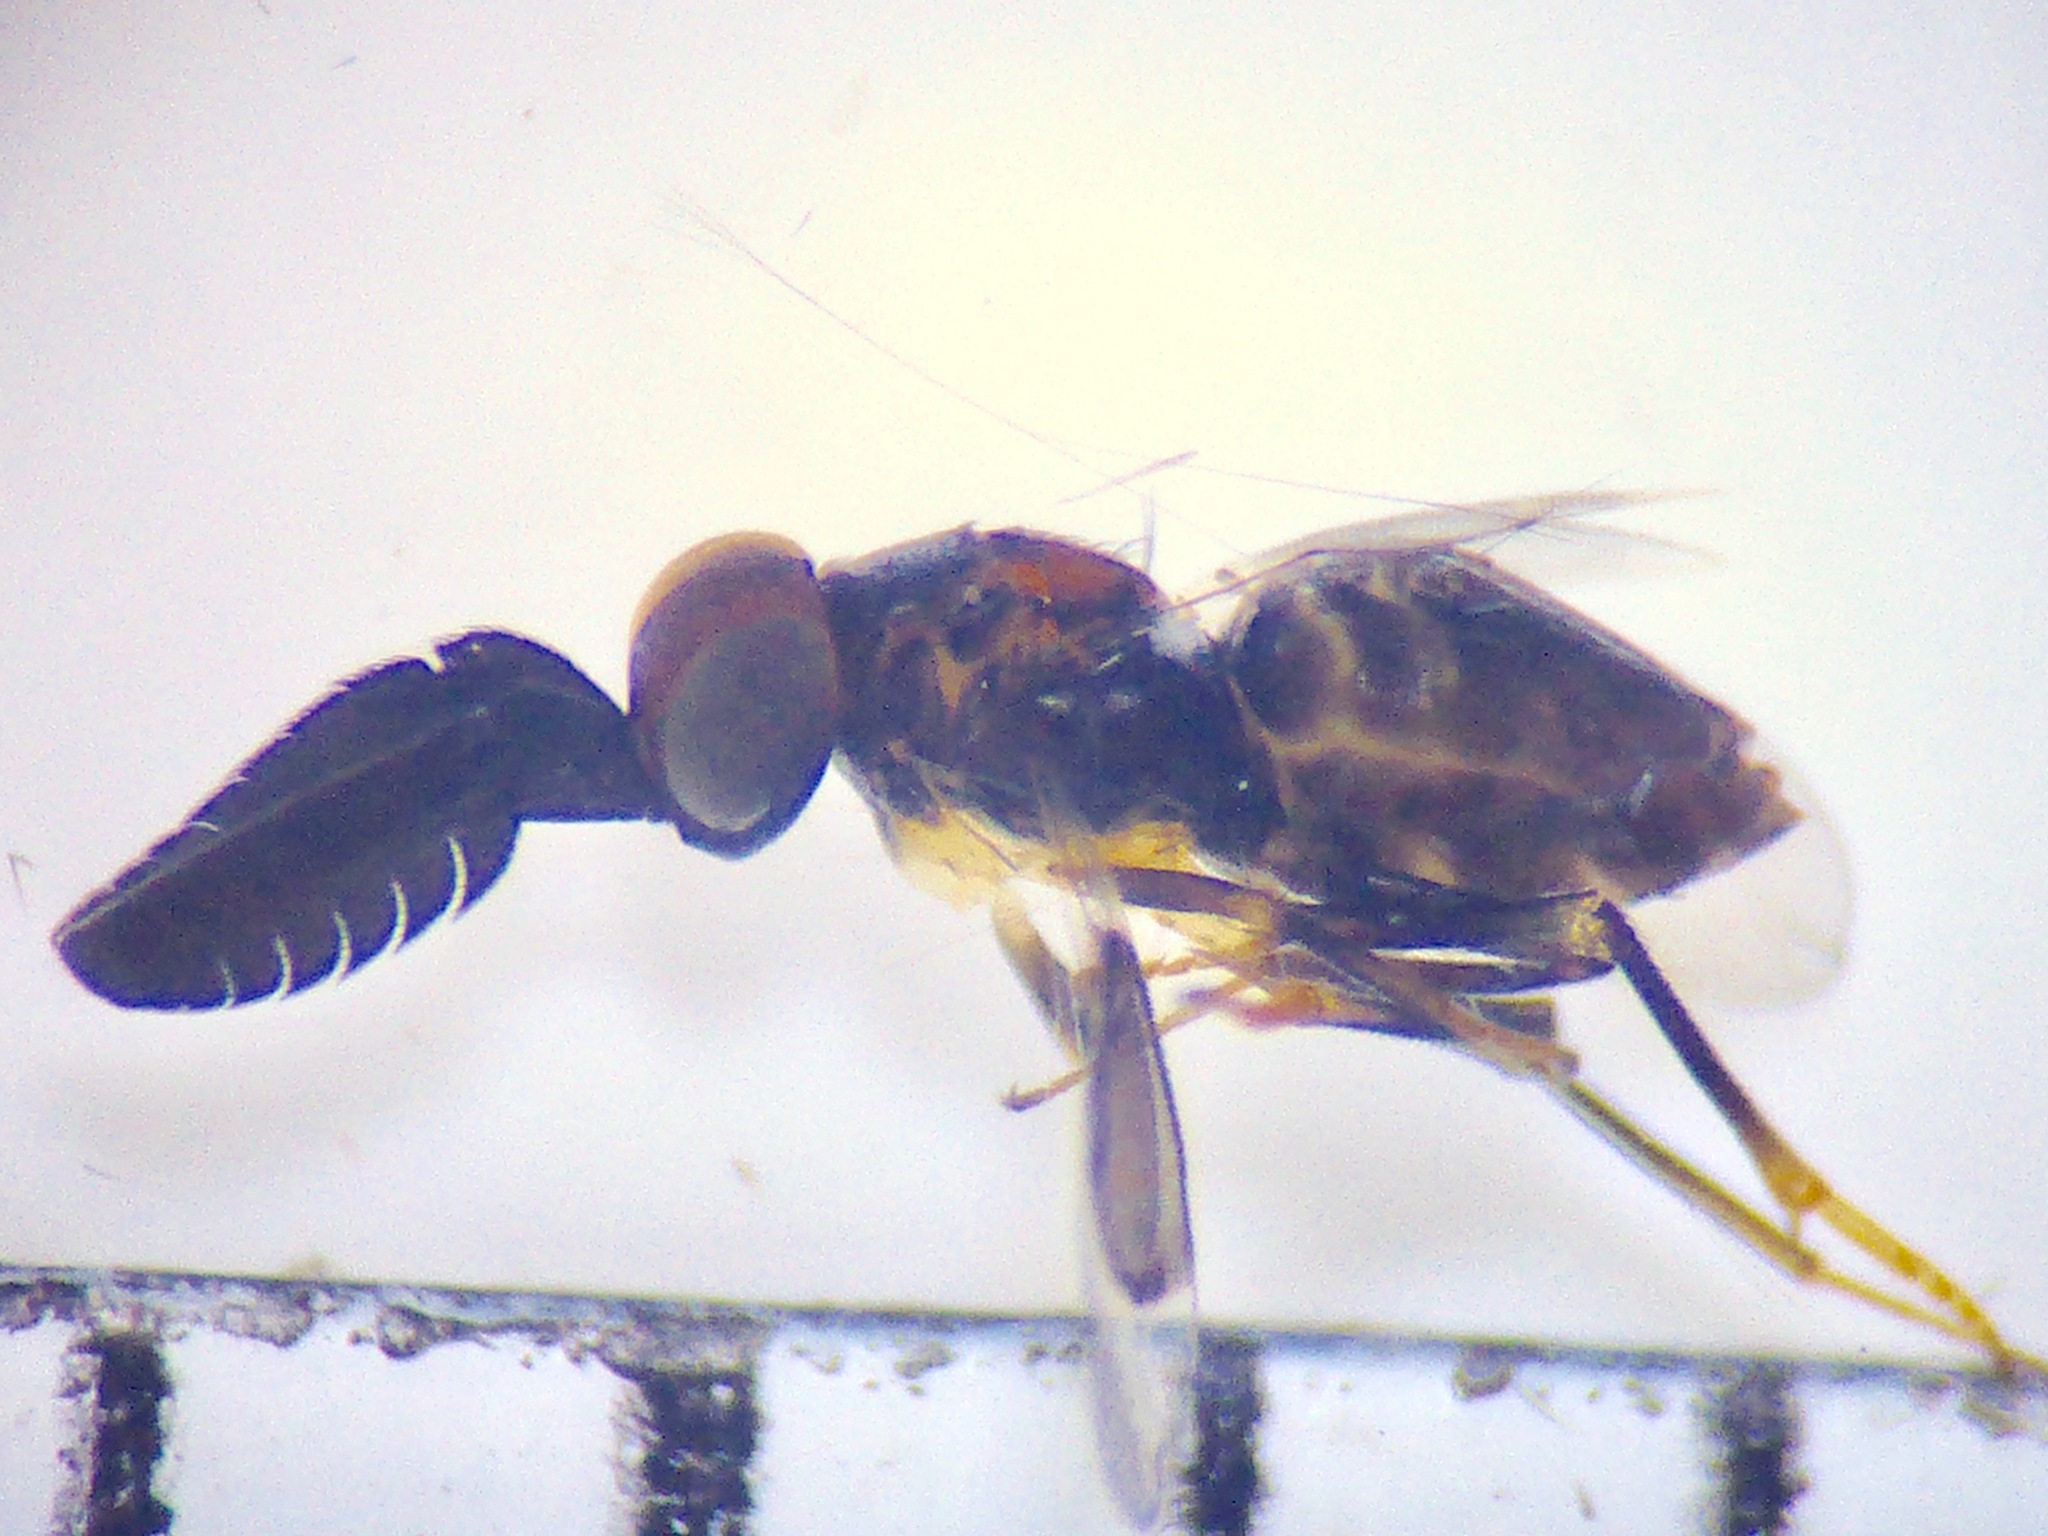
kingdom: Animalia
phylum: Arthropoda
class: Insecta
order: Hymenoptera
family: Encyrtidae
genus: Cryptanusia
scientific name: Cryptanusia aureiscutellum
